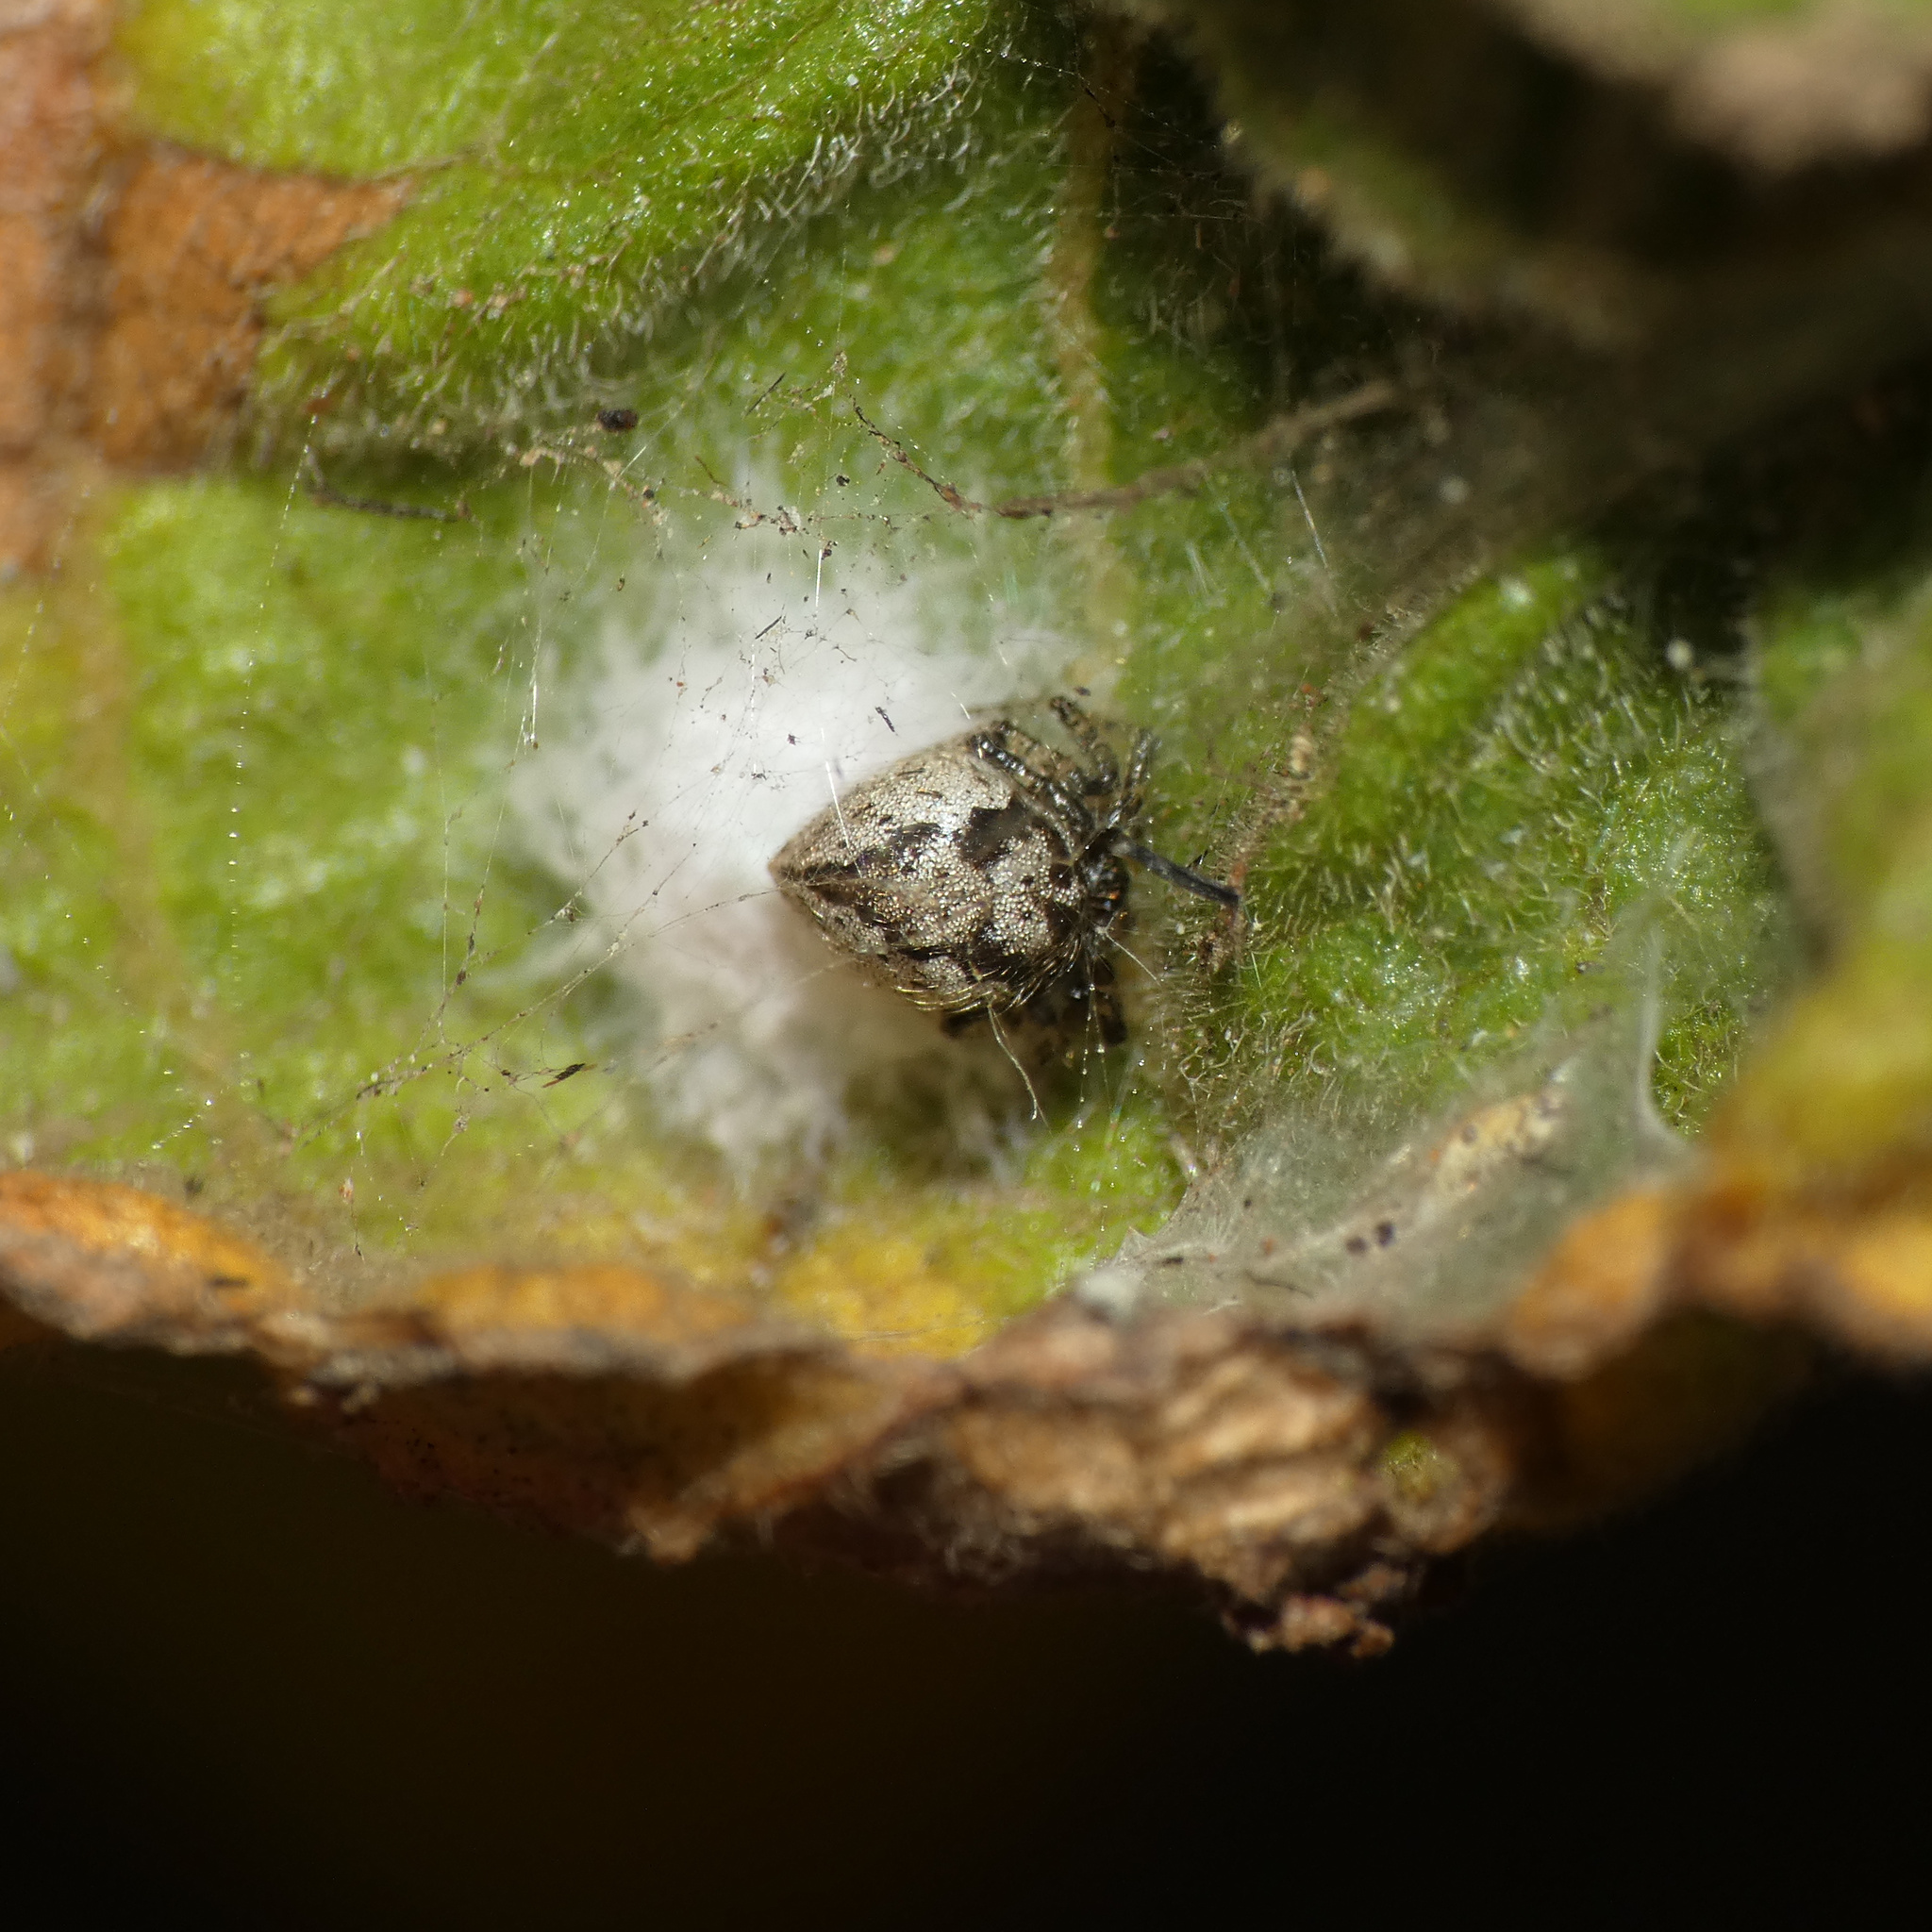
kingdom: Animalia
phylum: Arthropoda
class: Arachnida
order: Araneae
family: Theridiidae
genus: Euryopis
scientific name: Euryopis funebris
